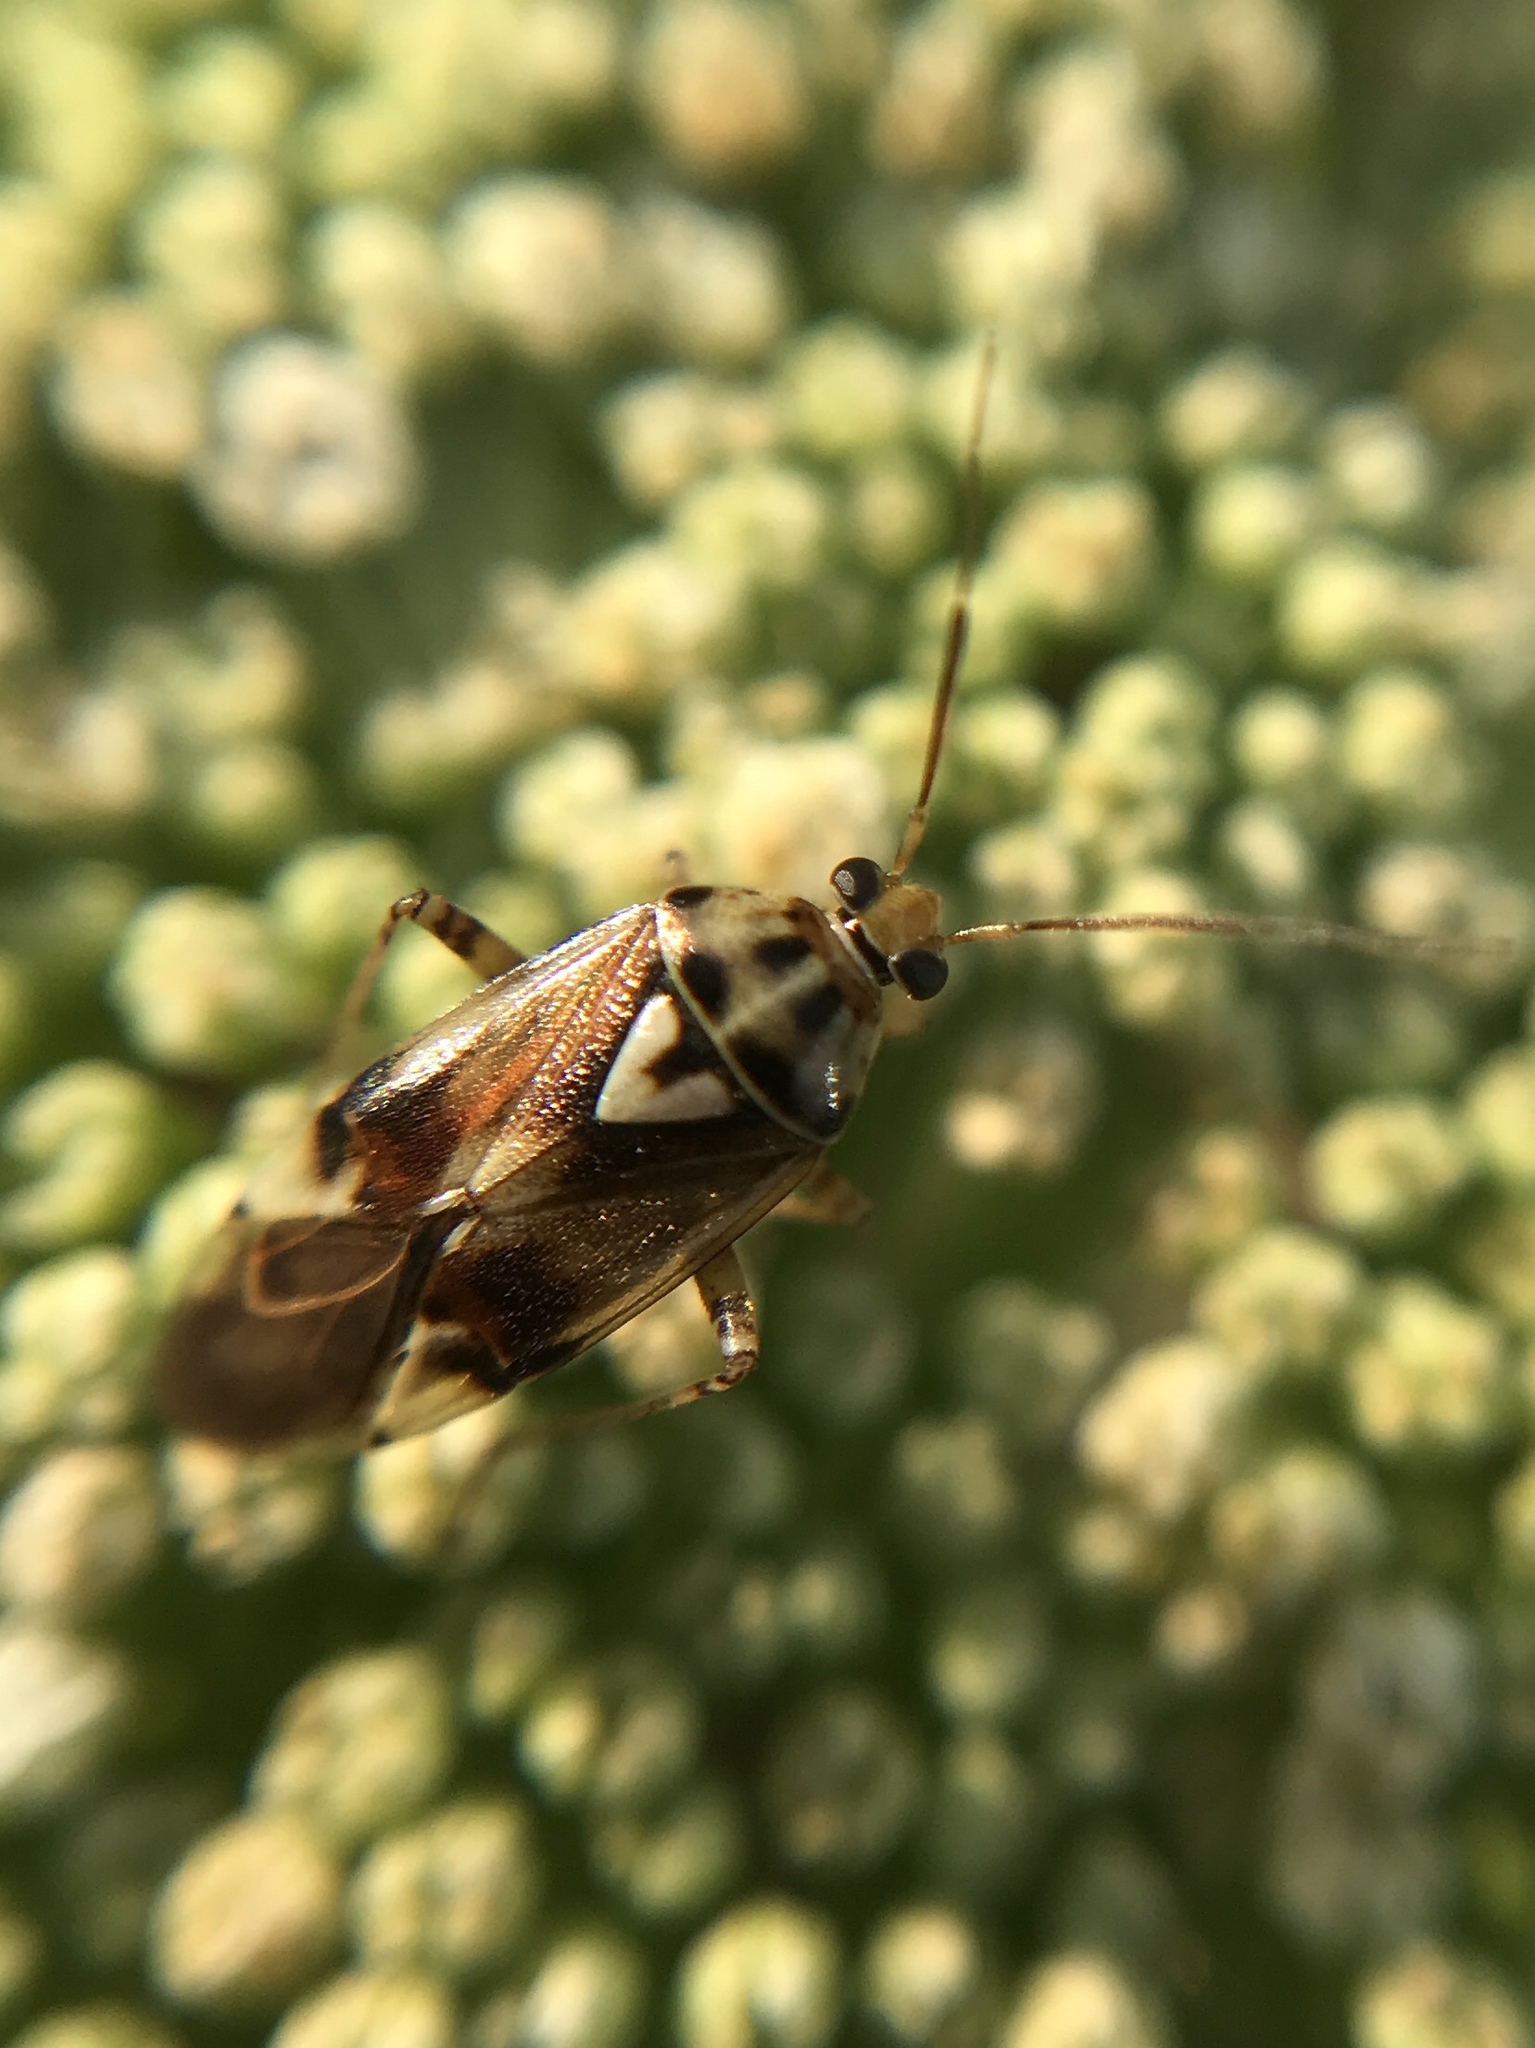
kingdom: Animalia
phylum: Arthropoda
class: Insecta
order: Hemiptera
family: Miridae
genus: Lygus
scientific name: Lygus pratensis
